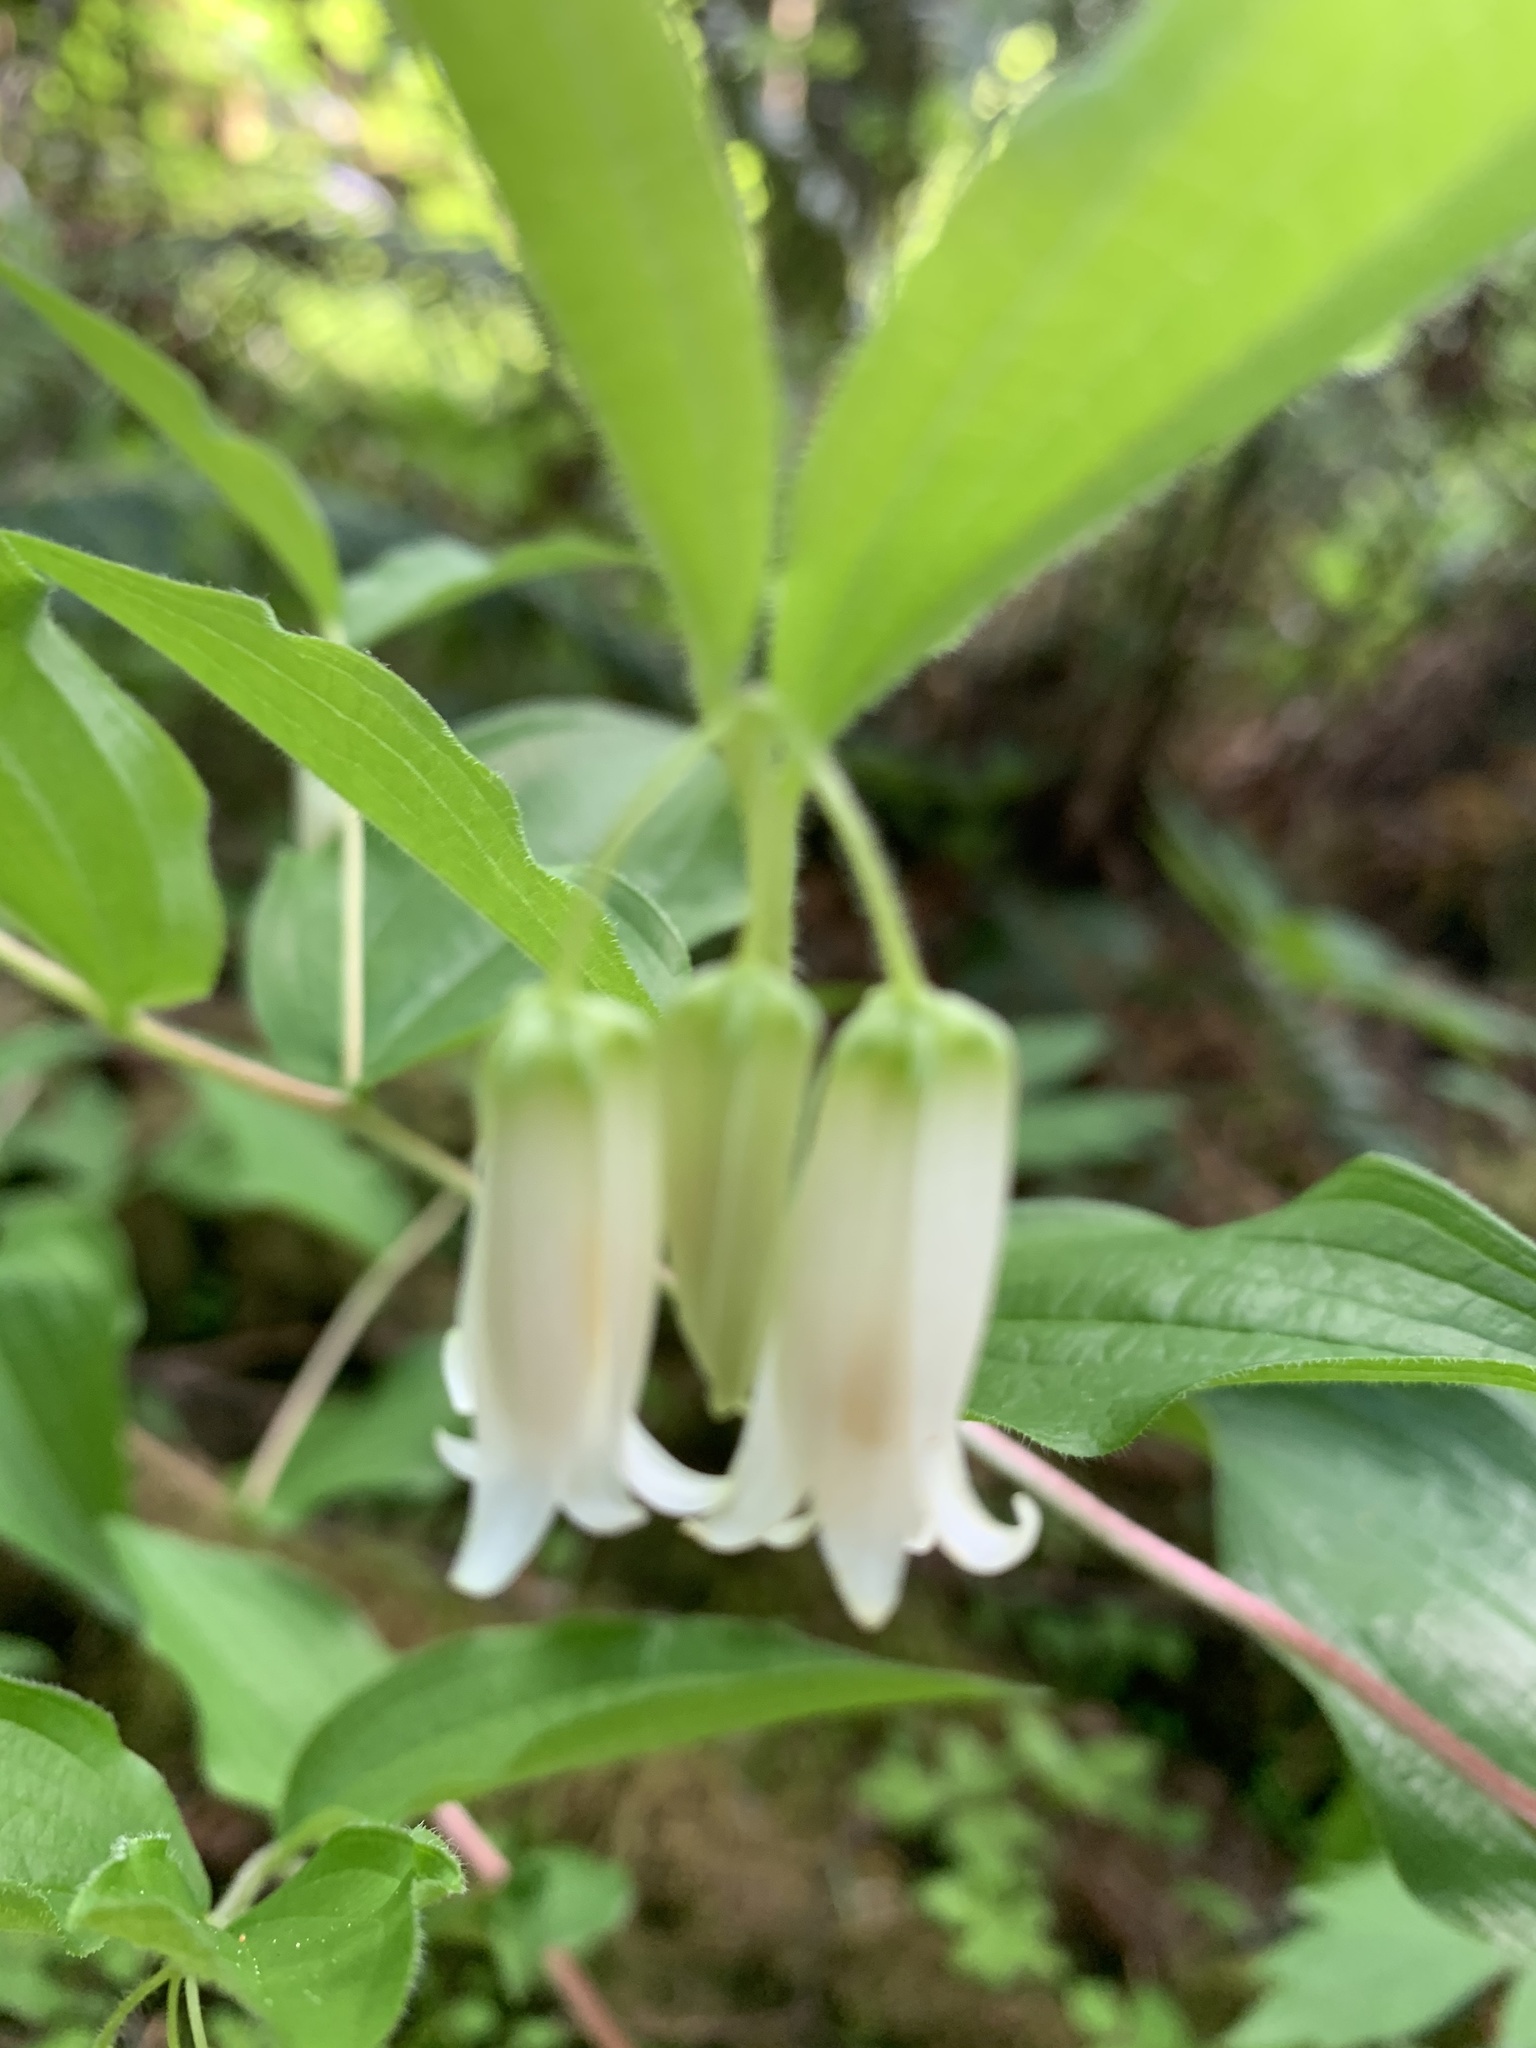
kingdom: Plantae
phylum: Tracheophyta
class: Liliopsida
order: Liliales
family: Liliaceae
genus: Prosartes
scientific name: Prosartes smithii
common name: Fairy-lantern
